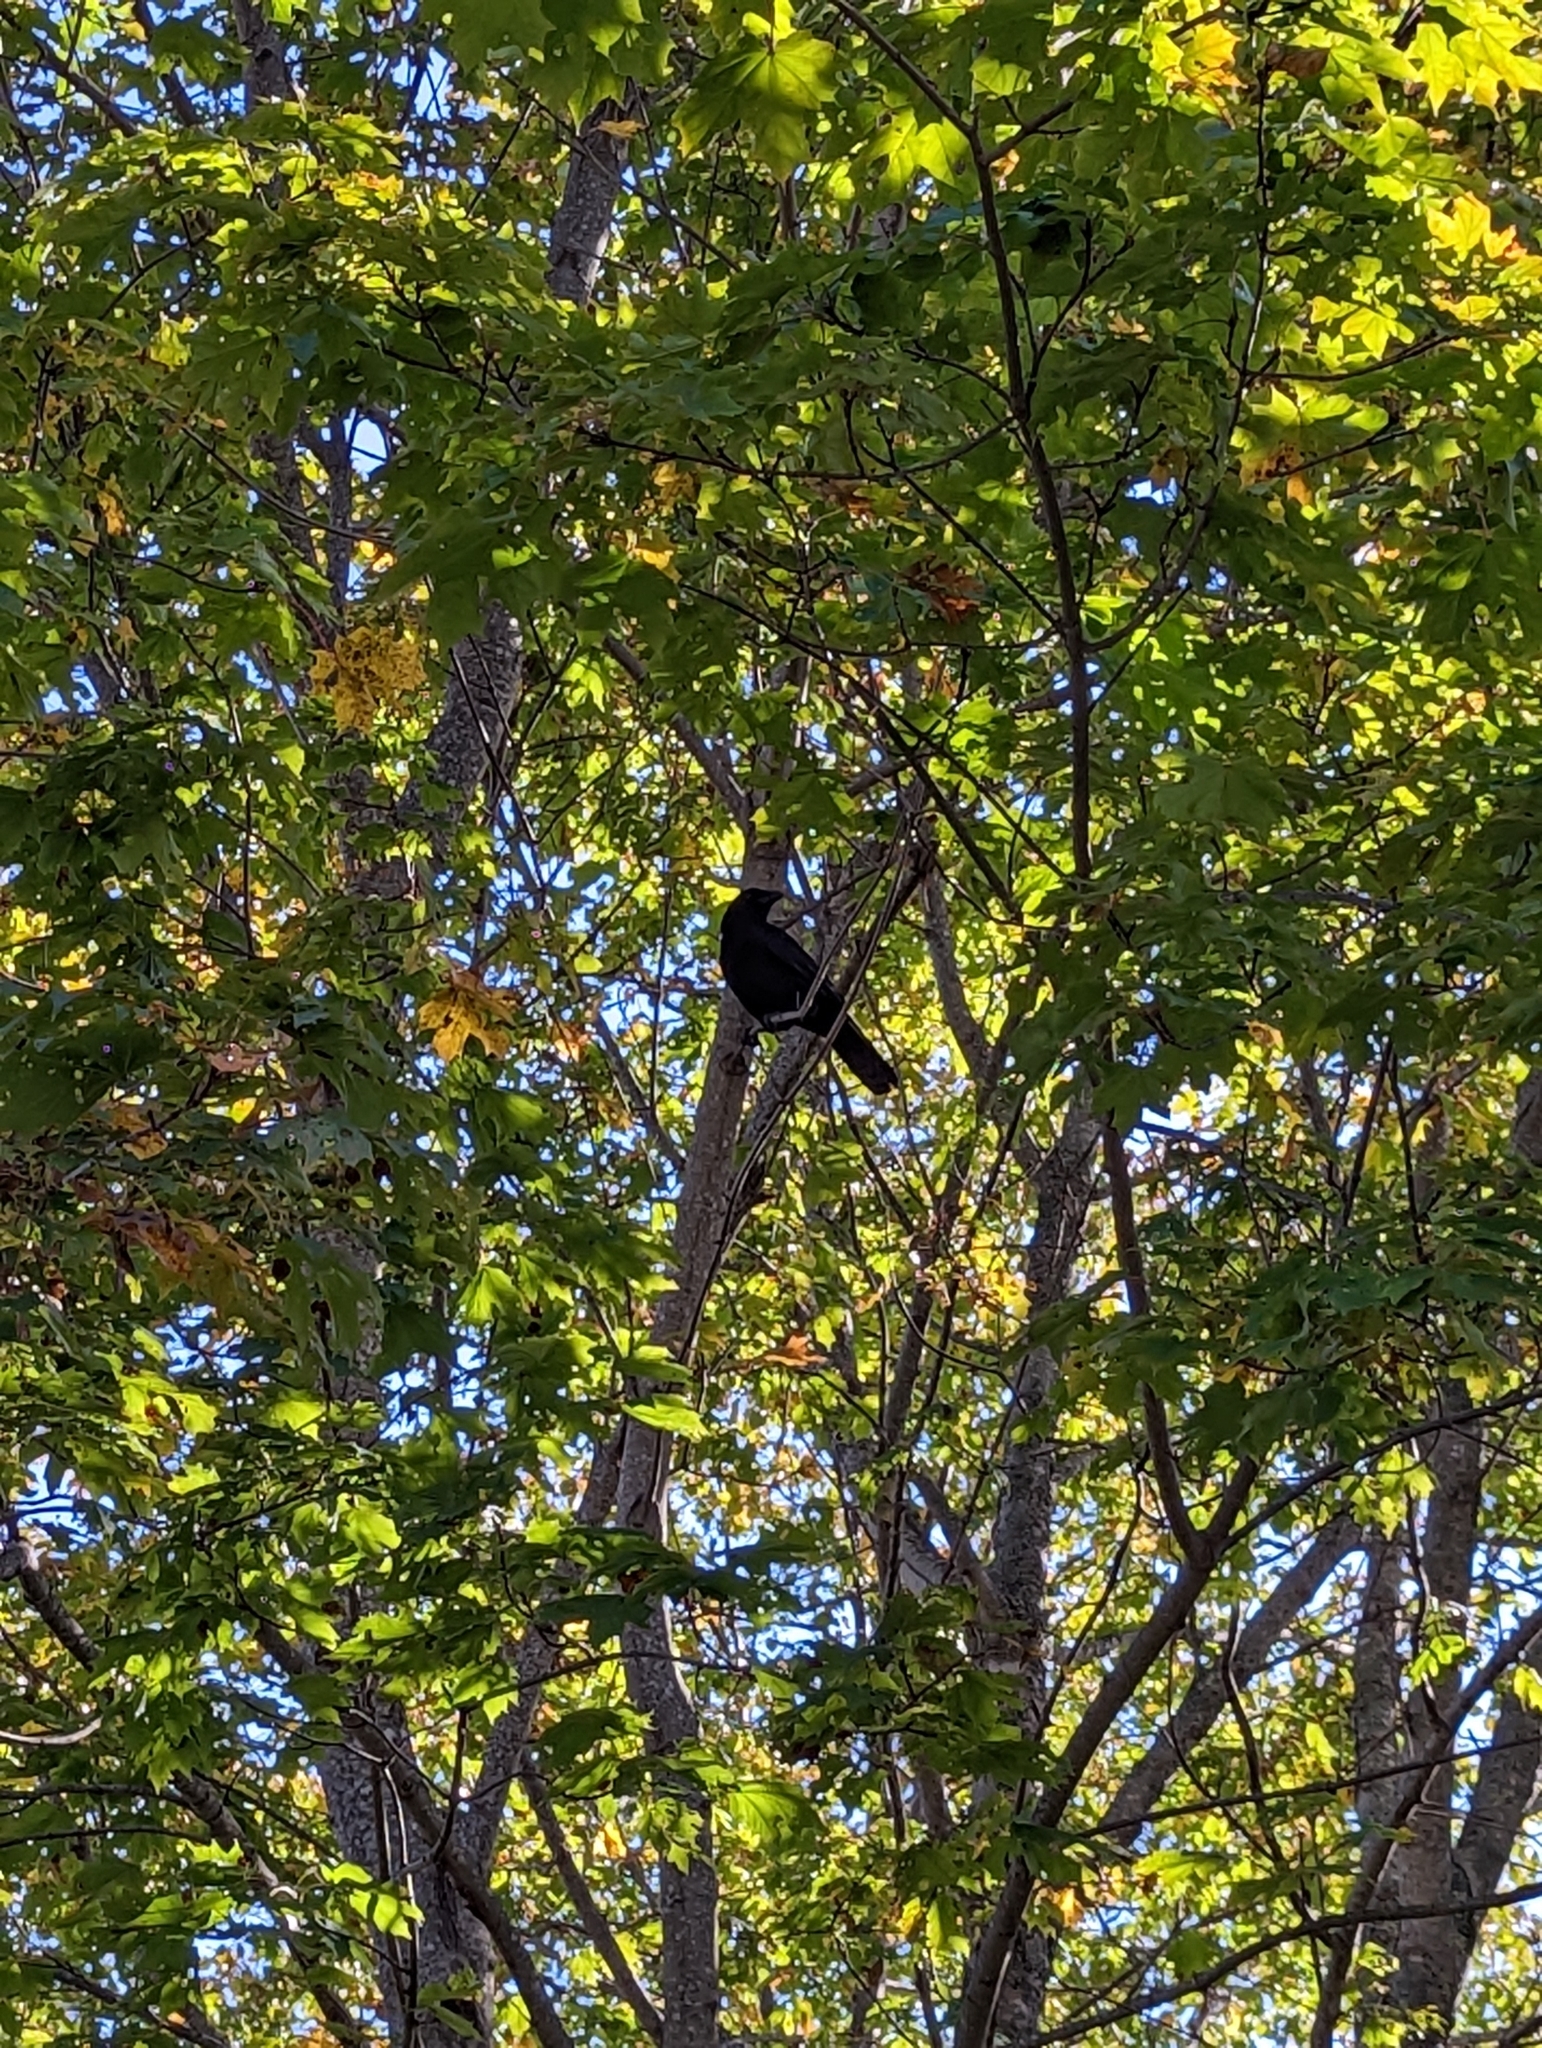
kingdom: Animalia
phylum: Chordata
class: Aves
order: Passeriformes
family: Corvidae
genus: Corvus
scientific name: Corvus brachyrhynchos
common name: American crow
